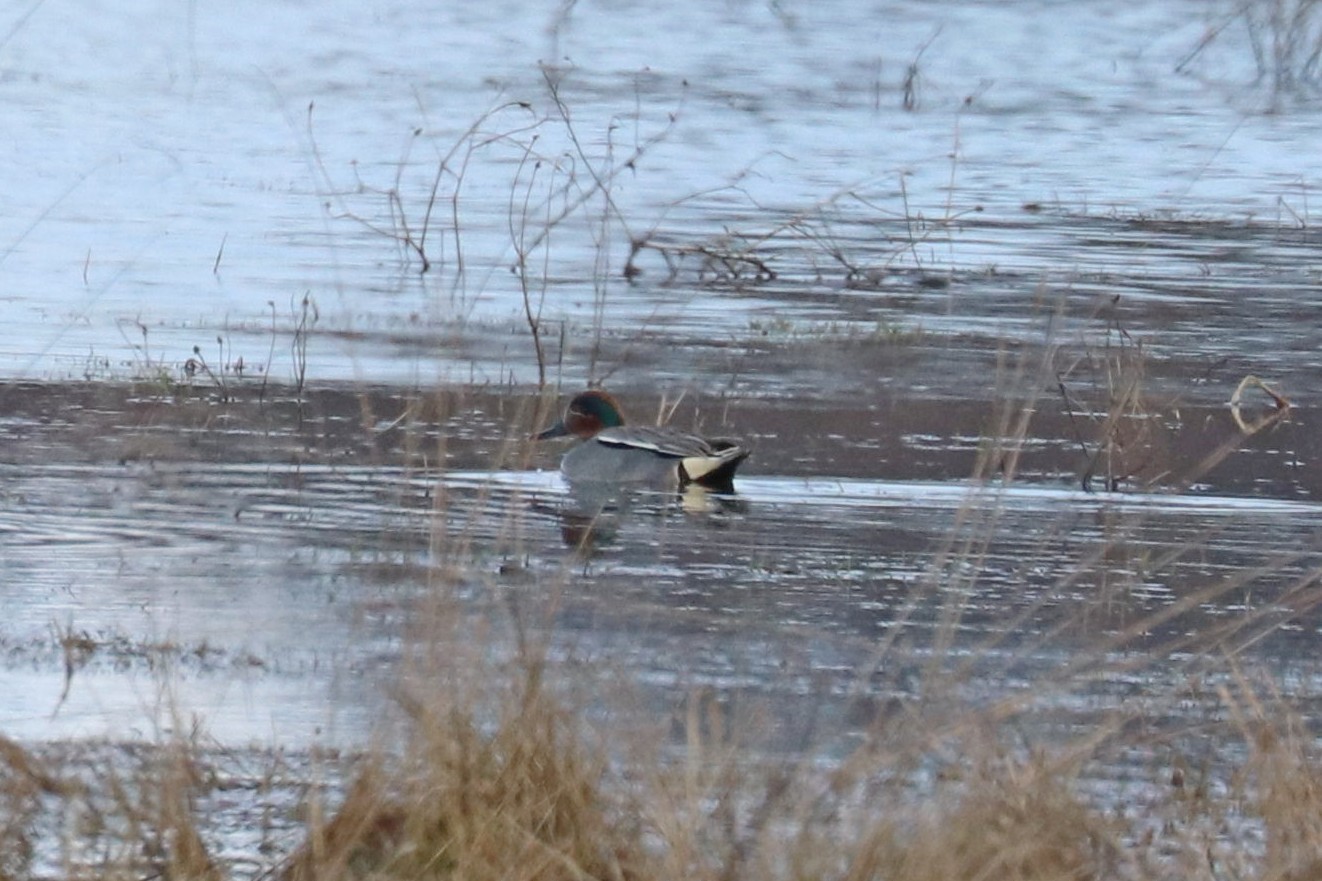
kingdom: Animalia
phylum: Chordata
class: Aves
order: Anseriformes
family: Anatidae
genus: Anas
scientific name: Anas crecca
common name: Eurasian teal
